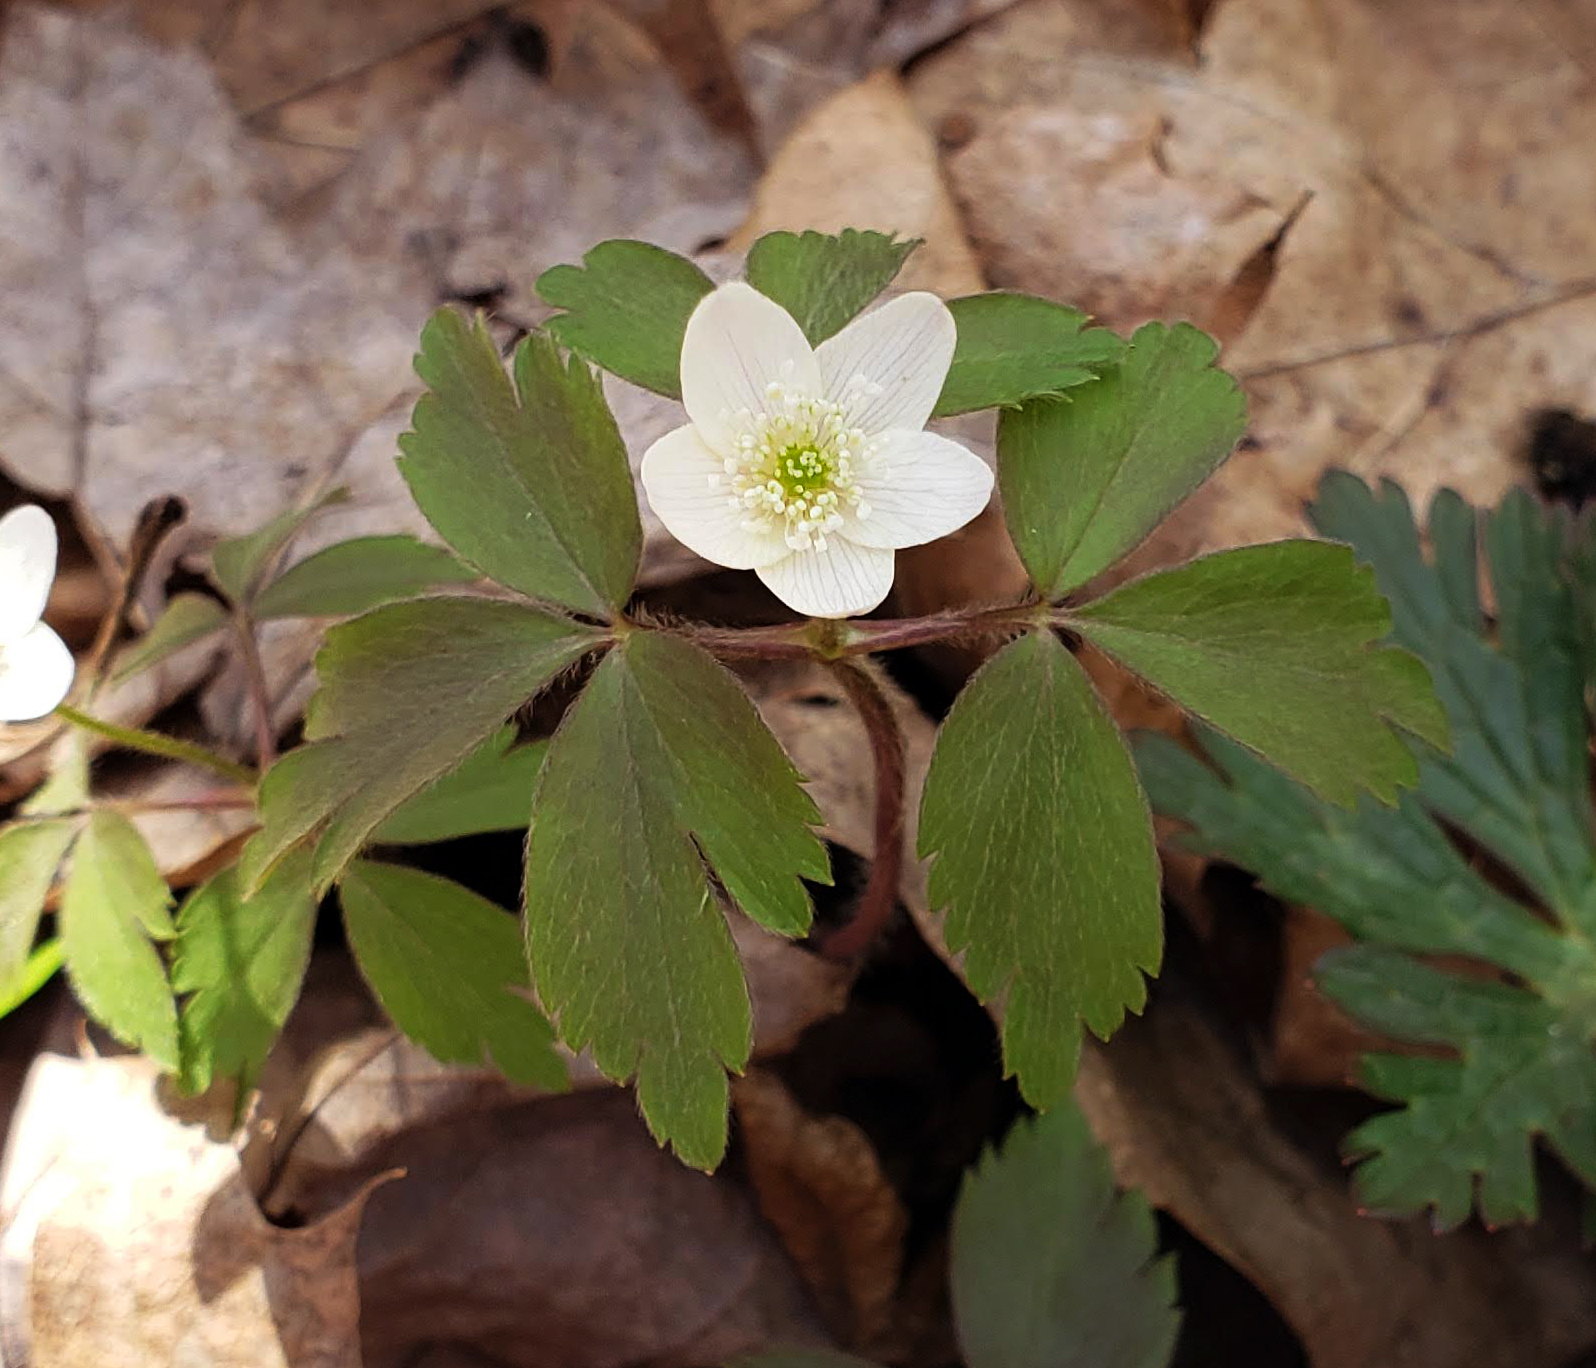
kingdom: Plantae
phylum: Tracheophyta
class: Magnoliopsida
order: Ranunculales
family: Ranunculaceae
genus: Anemone
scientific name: Anemone quinquefolia
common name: Wood anemone
